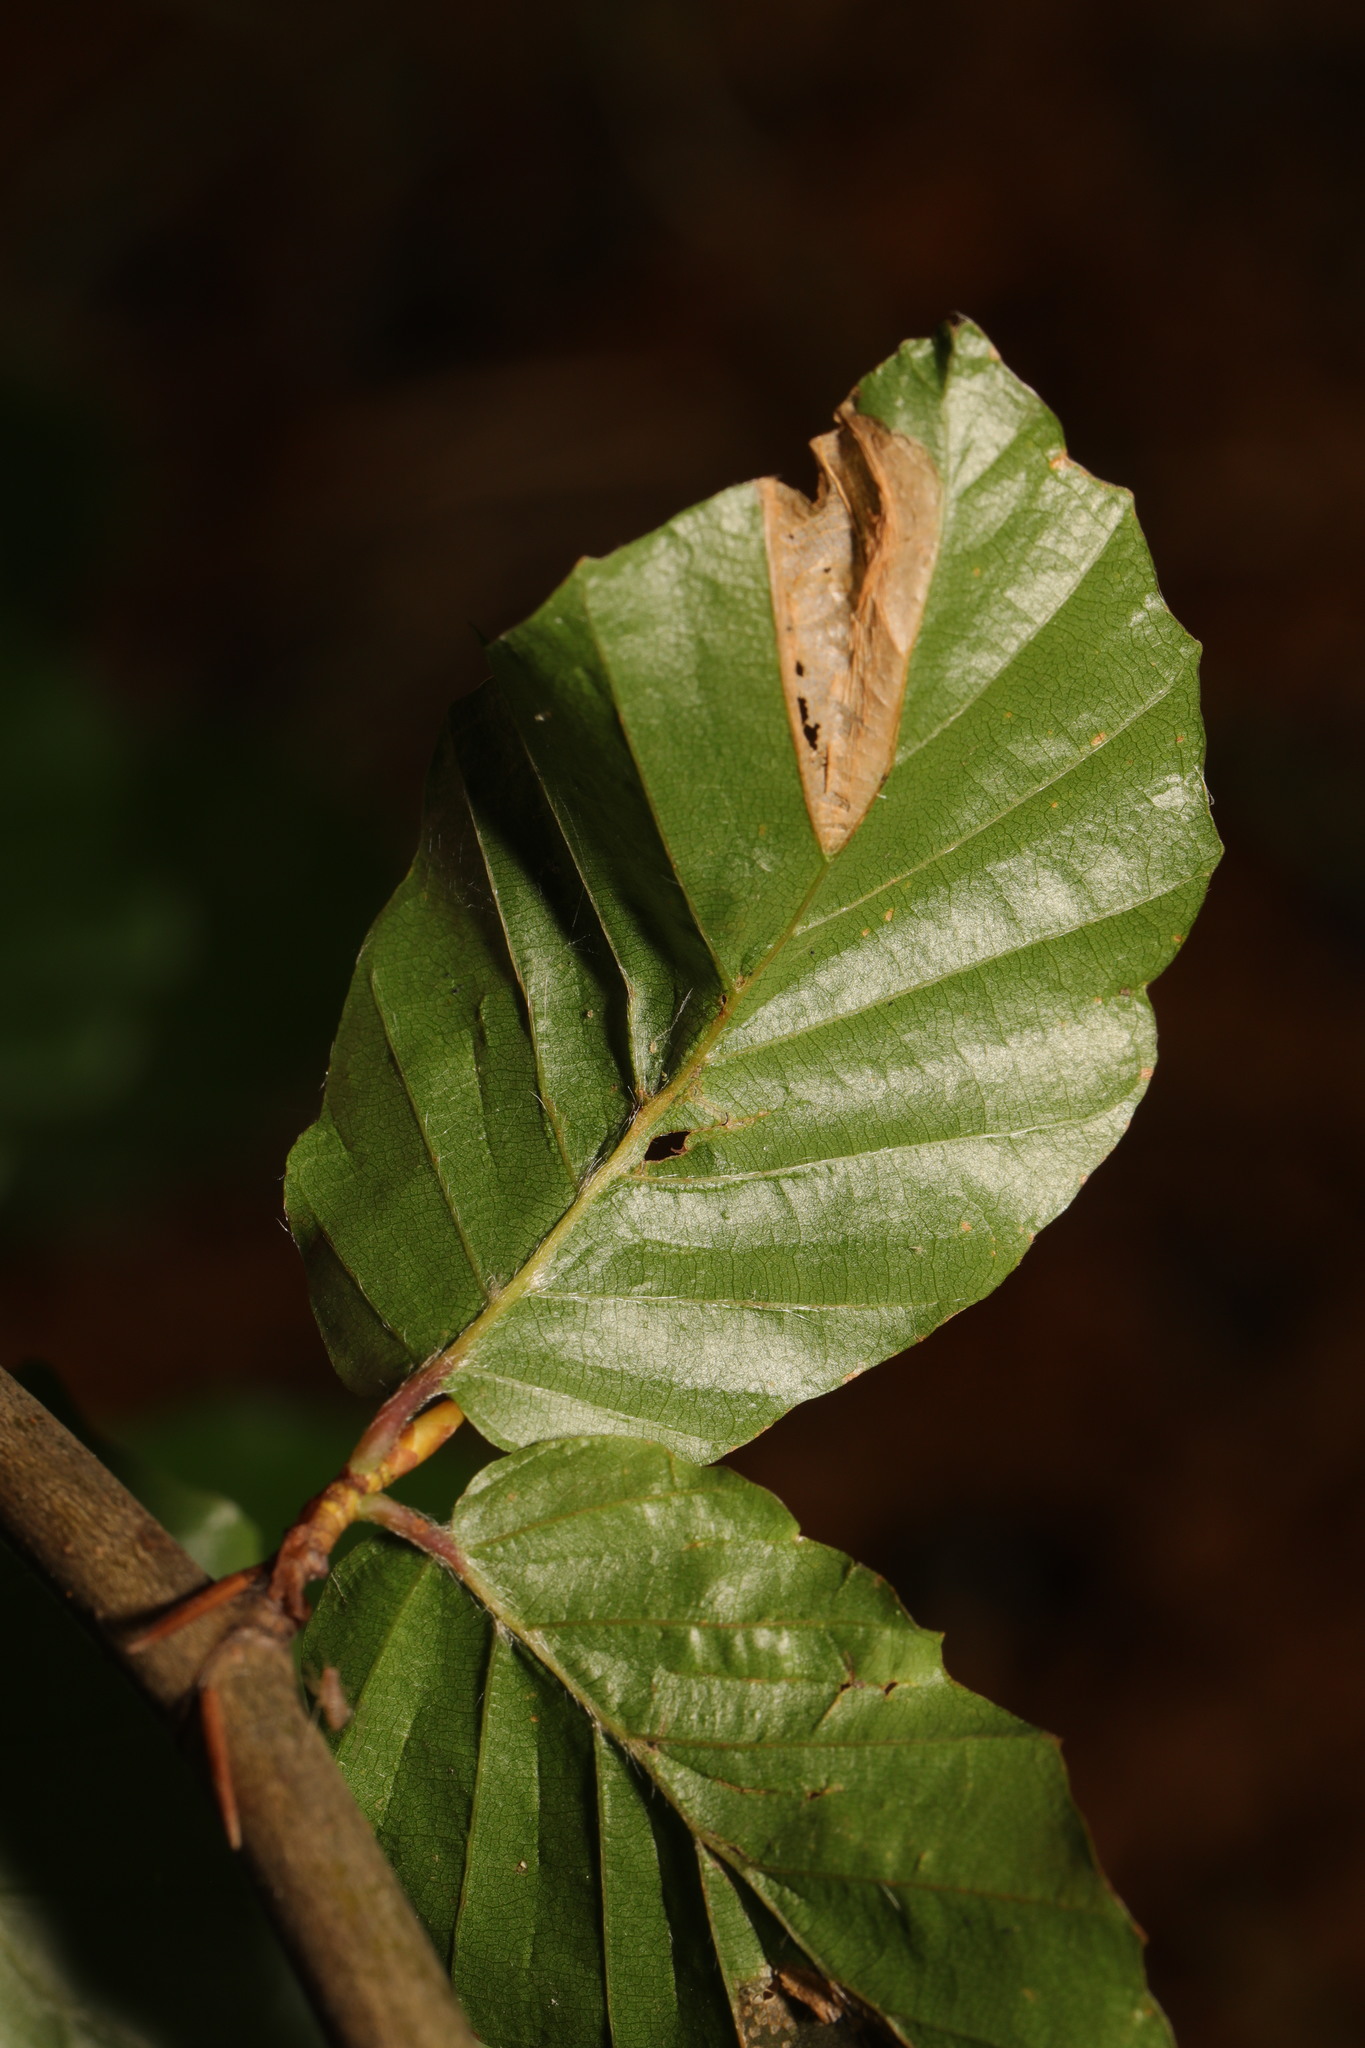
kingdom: Animalia
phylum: Arthropoda
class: Insecta
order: Lepidoptera
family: Gracillariidae
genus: Phyllonorycter
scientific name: Phyllonorycter maestingella
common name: Beech midget
